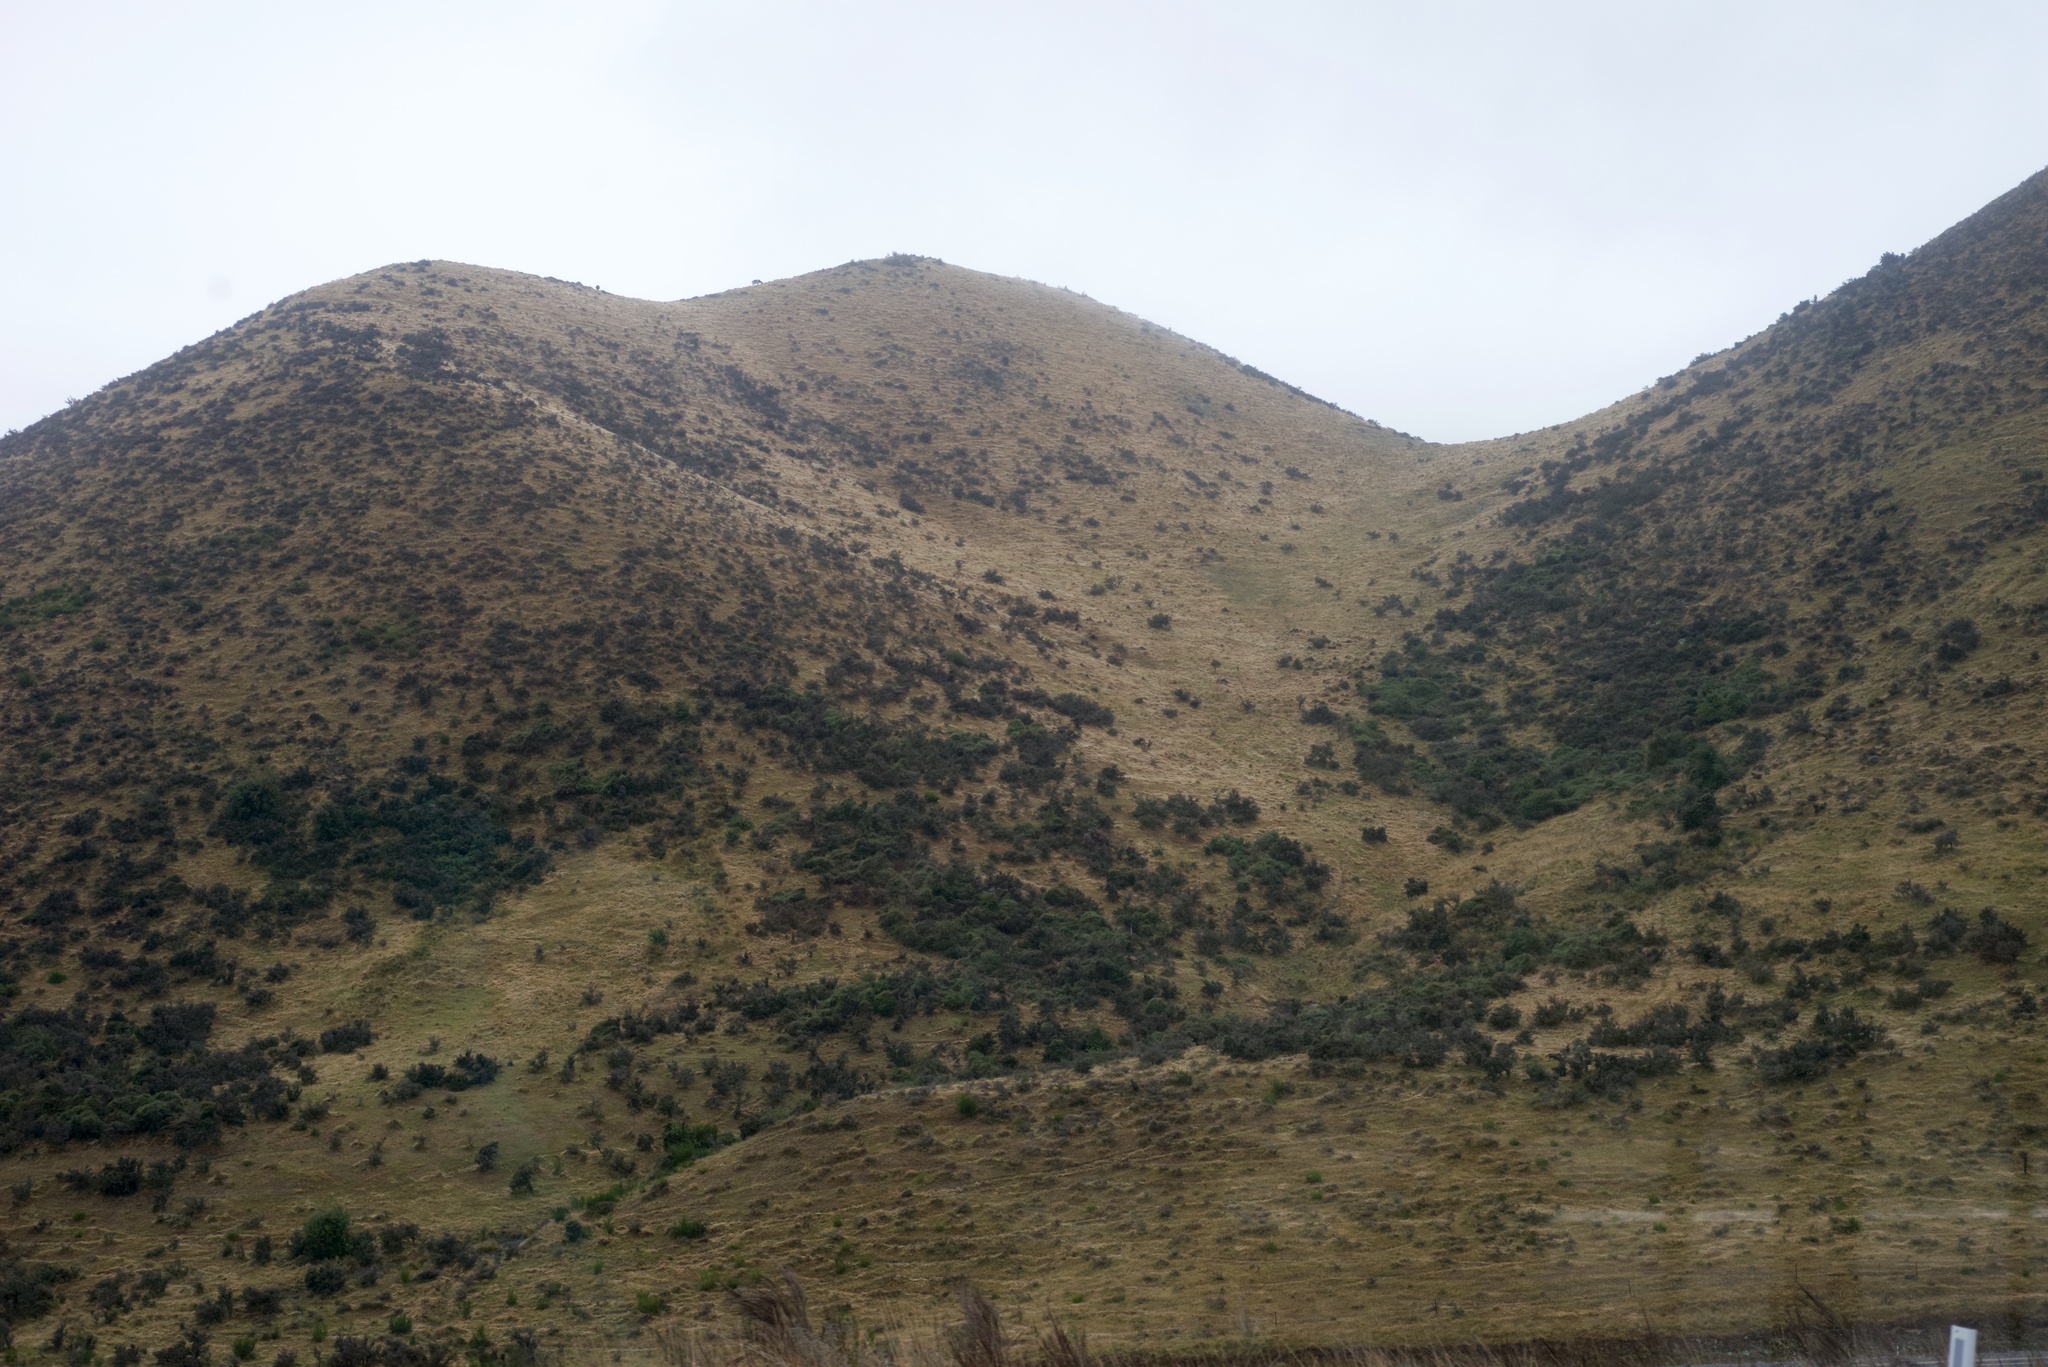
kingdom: Plantae
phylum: Tracheophyta
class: Magnoliopsida
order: Rosales
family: Rhamnaceae
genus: Discaria
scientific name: Discaria toumatou
